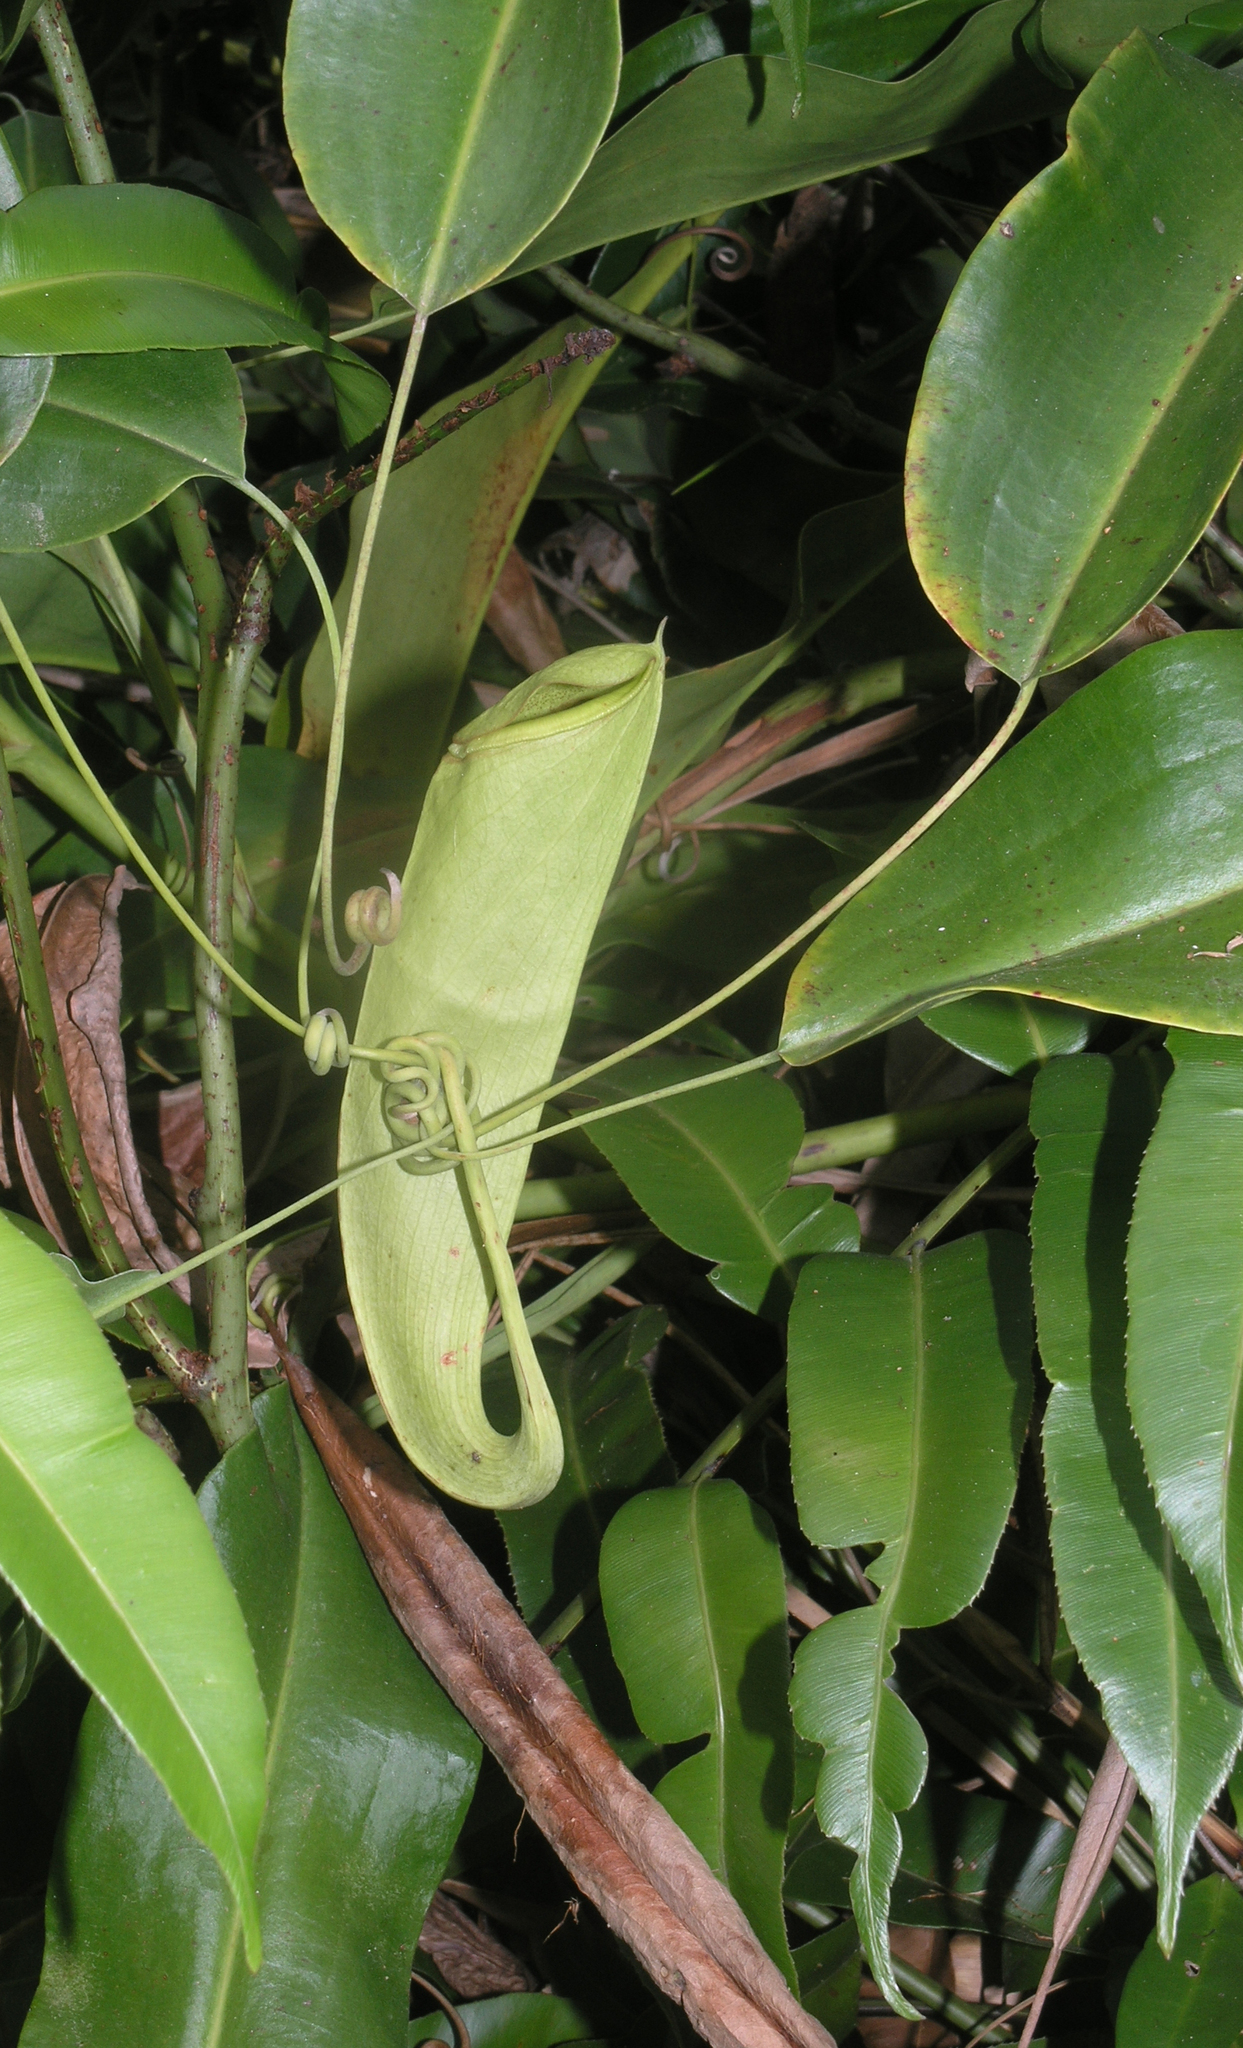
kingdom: Plantae
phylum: Tracheophyta
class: Magnoliopsida
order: Caryophyllales
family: Nepenthaceae
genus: Nepenthes
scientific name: Nepenthes mirabilis
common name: Tropical pitcherplant
